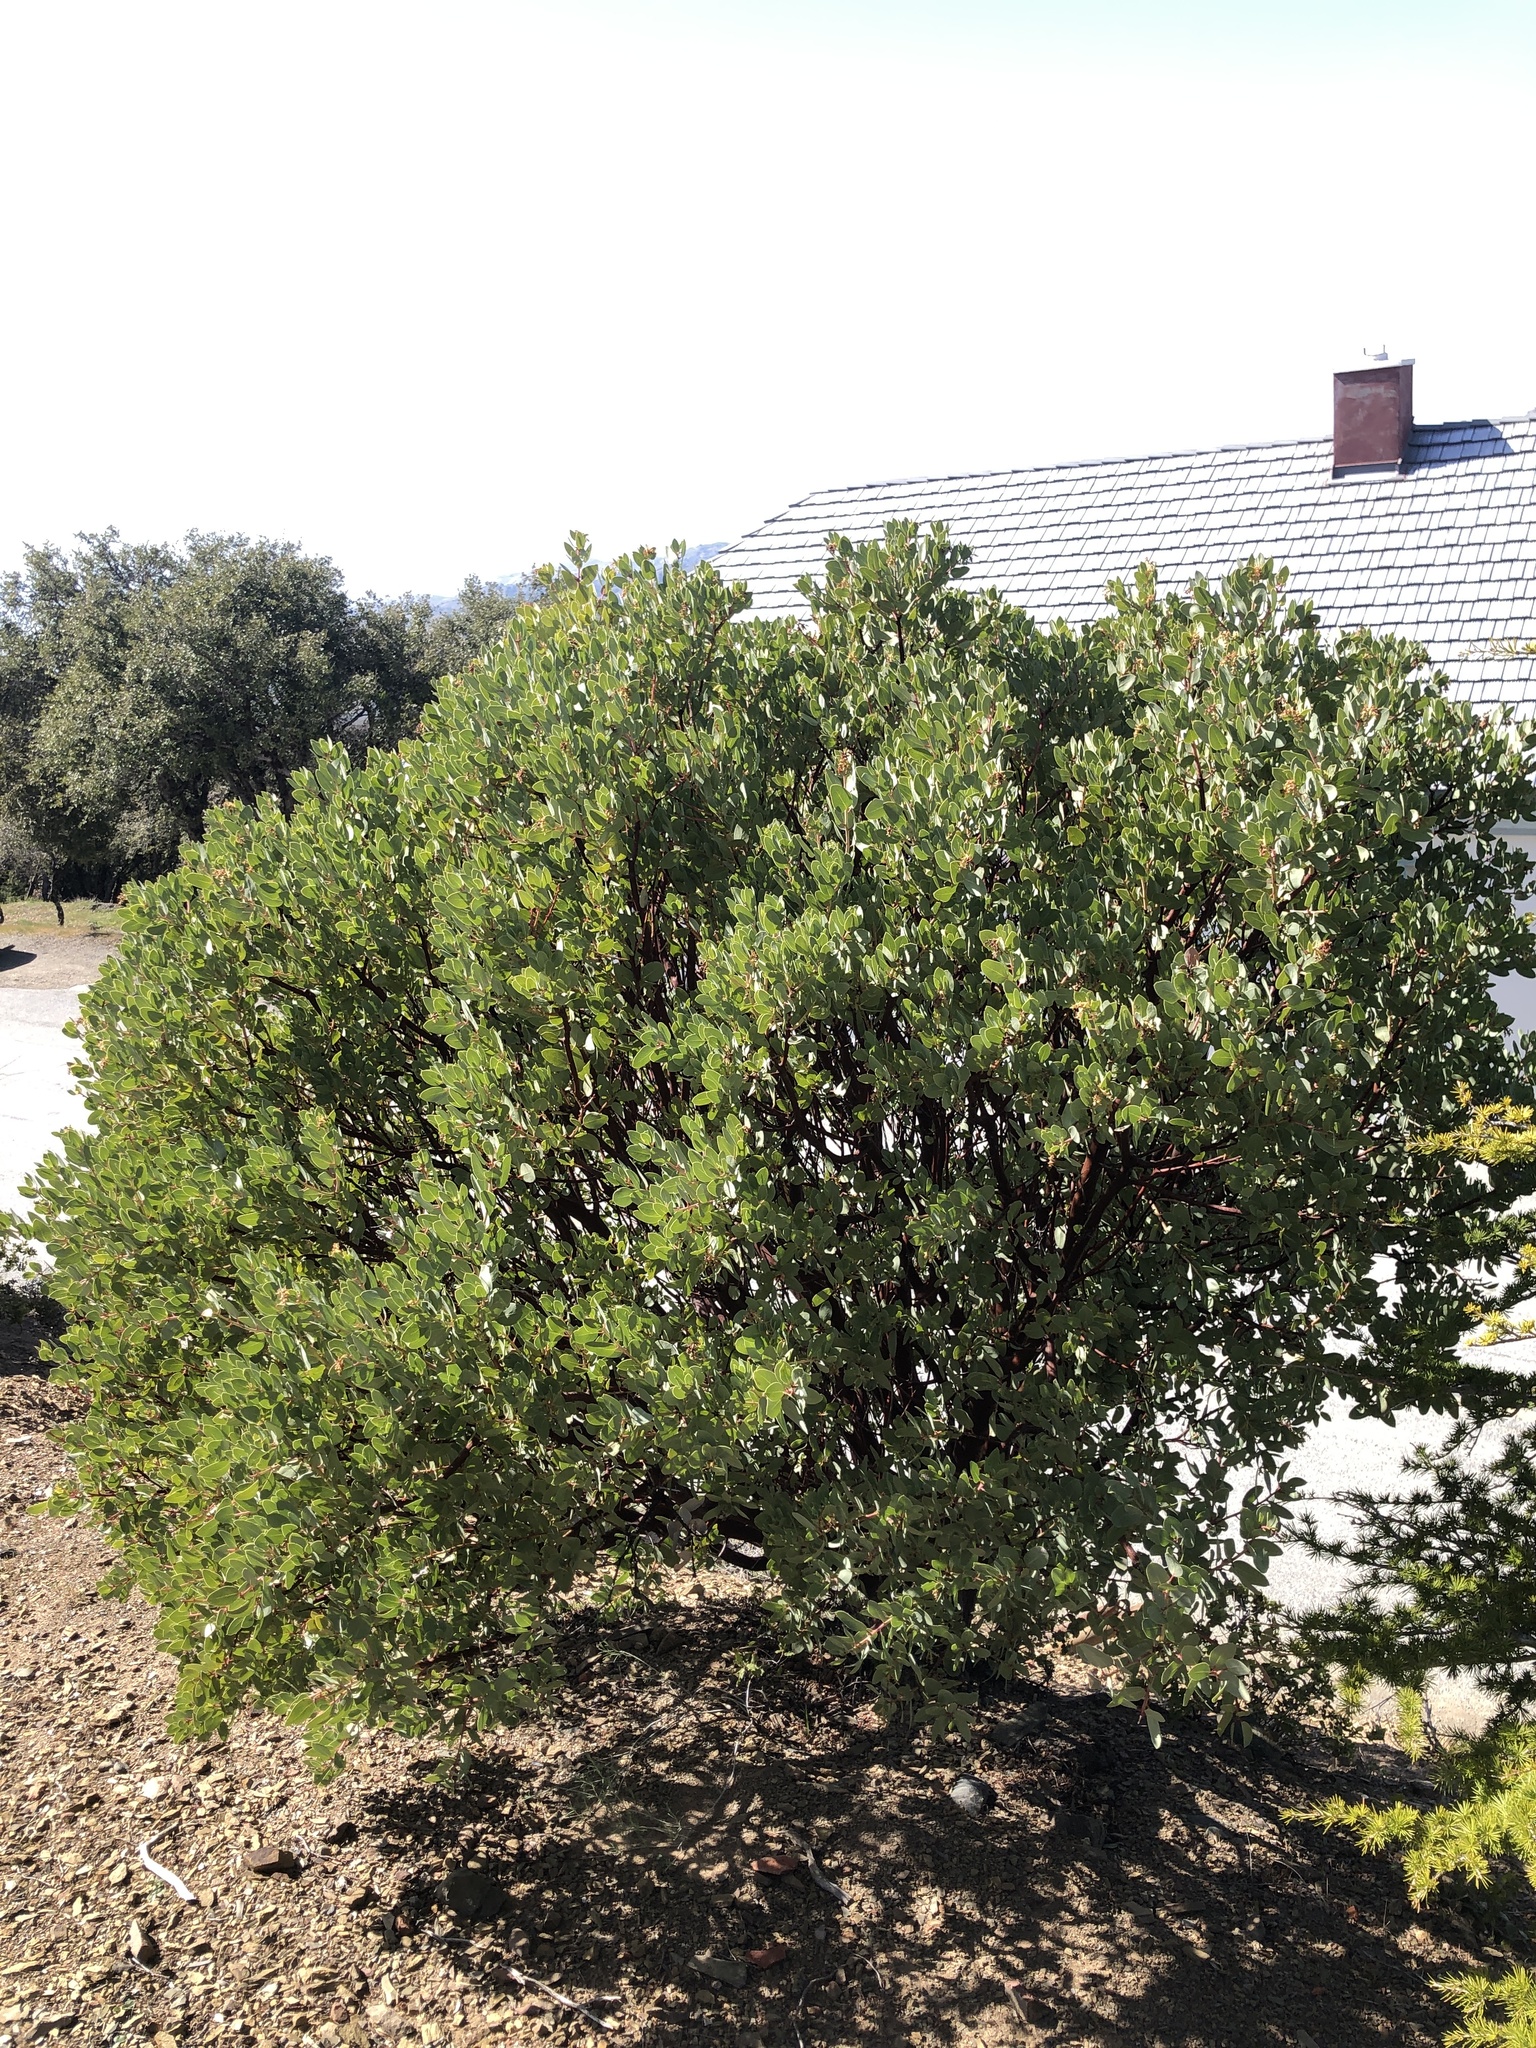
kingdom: Plantae
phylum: Tracheophyta
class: Magnoliopsida
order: Ericales
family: Ericaceae
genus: Arctostaphylos
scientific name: Arctostaphylos glauca
